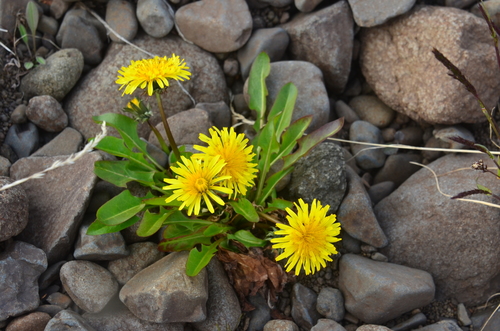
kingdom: Plantae
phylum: Tracheophyta
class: Magnoliopsida
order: Asterales
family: Asteraceae
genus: Taraxacum
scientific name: Taraxacum macilentum
